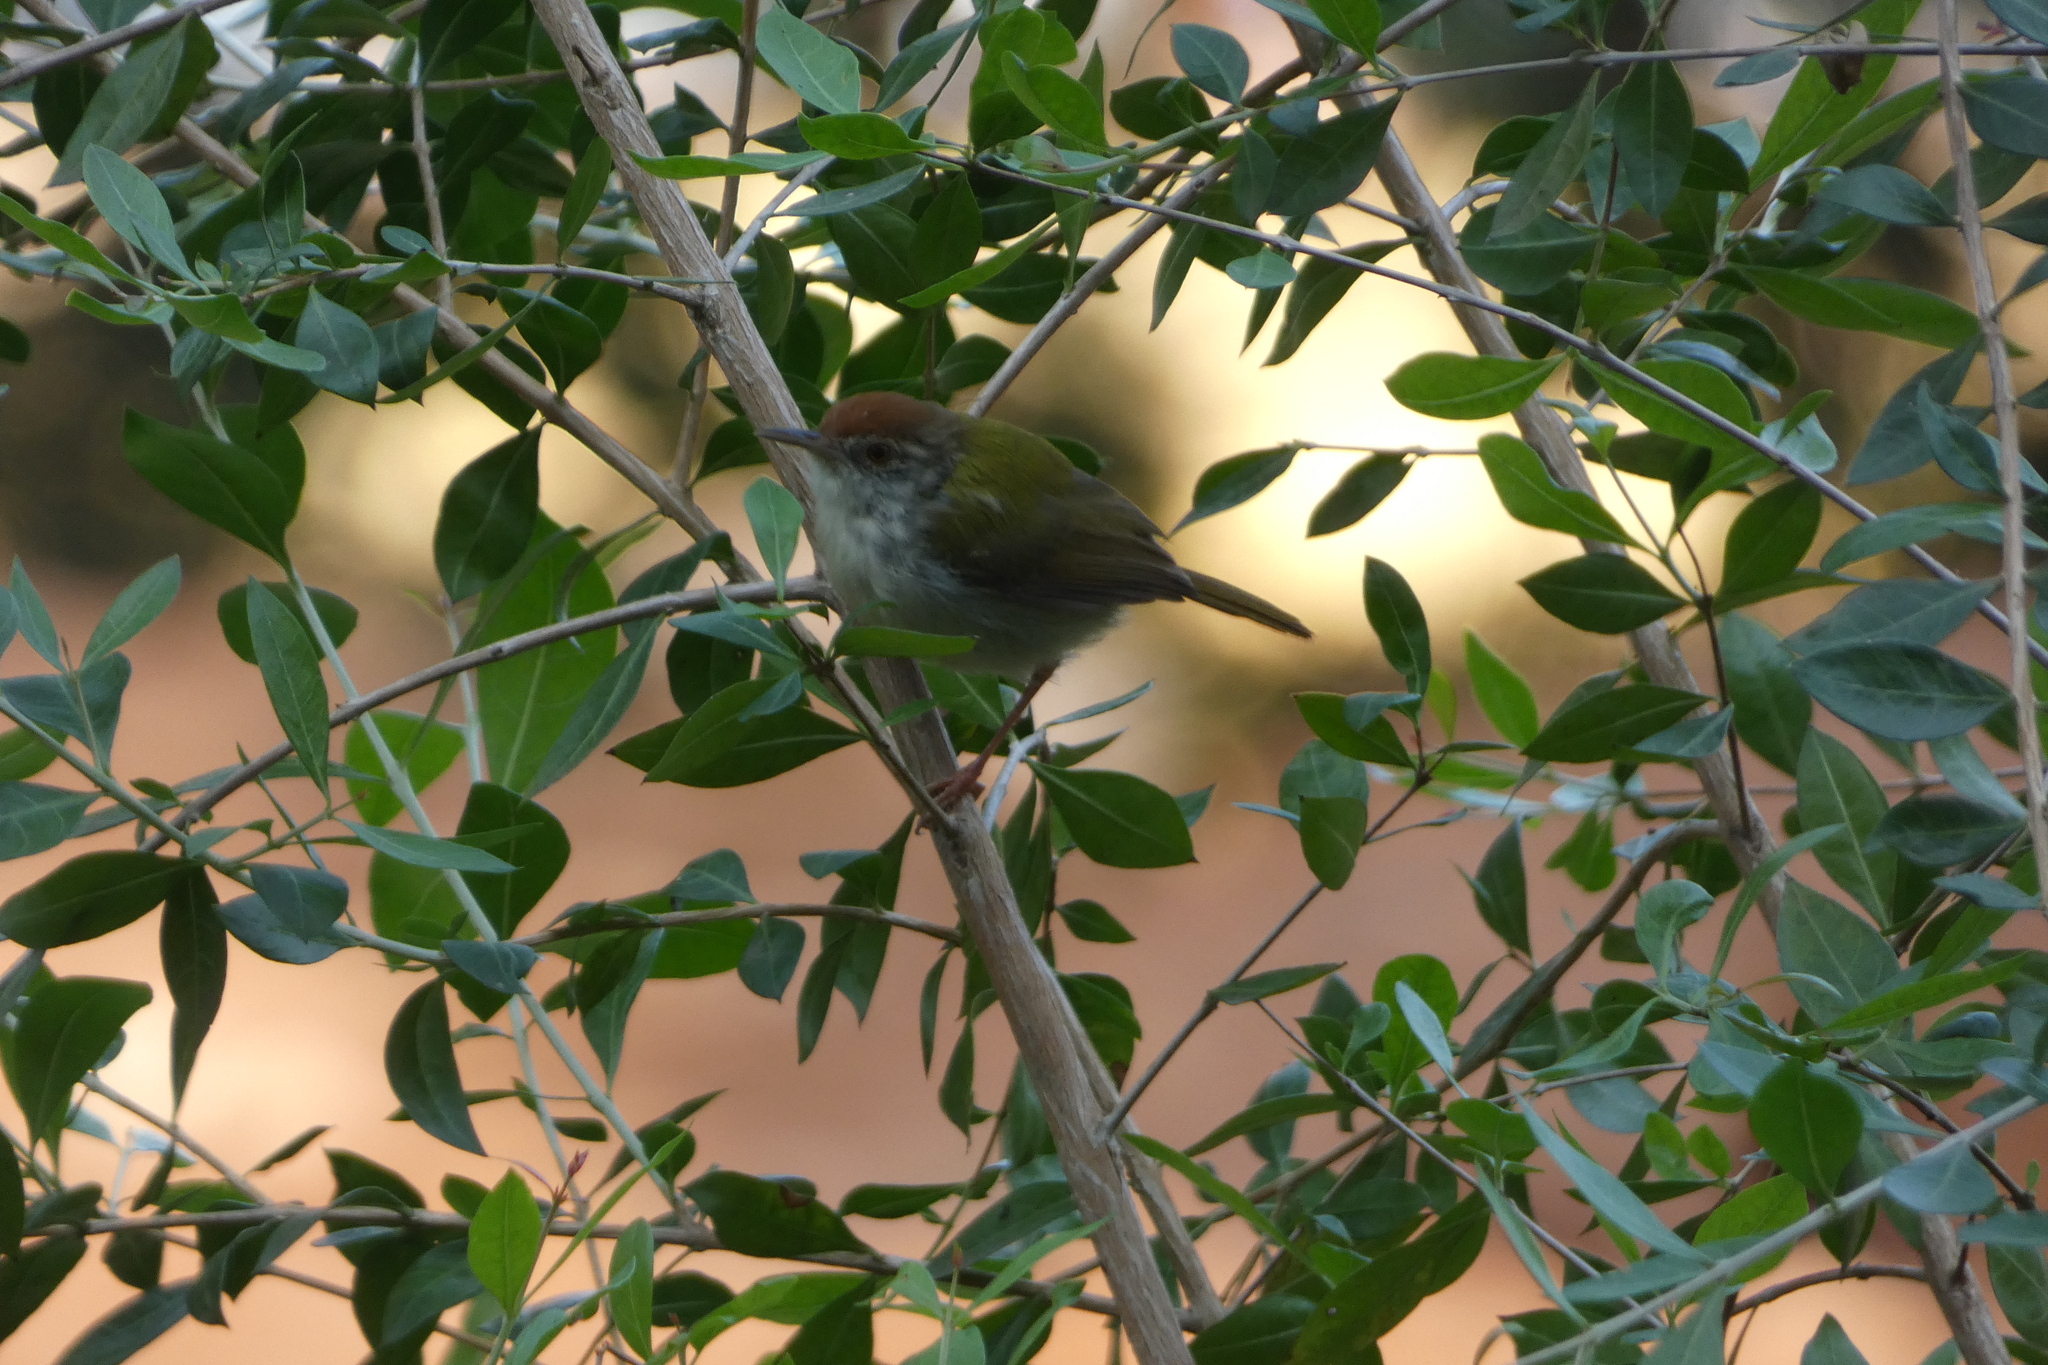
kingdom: Animalia
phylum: Chordata
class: Aves
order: Passeriformes
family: Cisticolidae
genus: Orthotomus
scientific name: Orthotomus sutorius
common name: Common tailorbird
